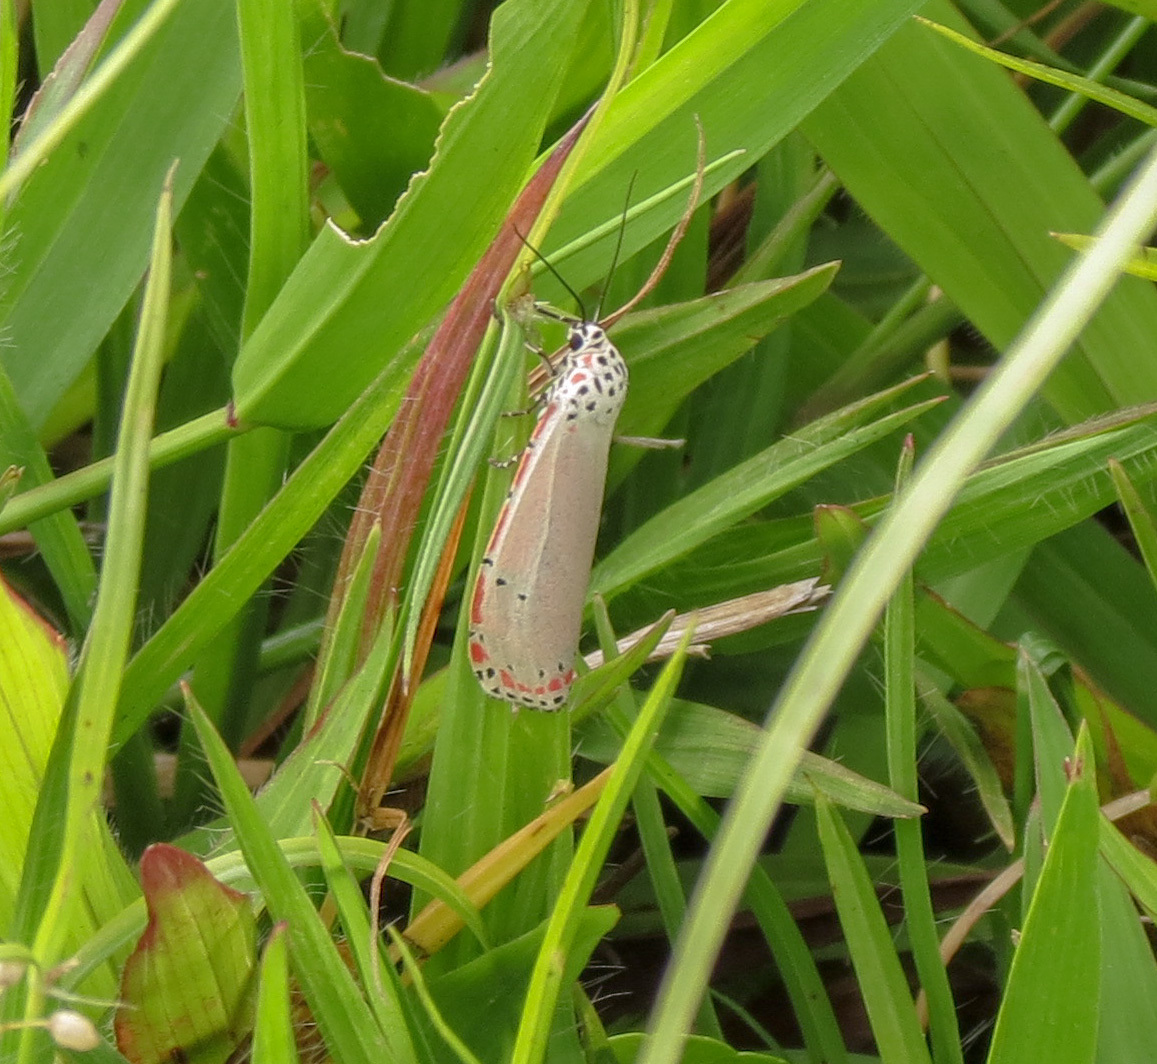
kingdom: Animalia
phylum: Arthropoda
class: Insecta
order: Lepidoptera
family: Erebidae
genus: Utetheisa
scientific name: Utetheisa ornatrix
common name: Beautiful utetheisa
